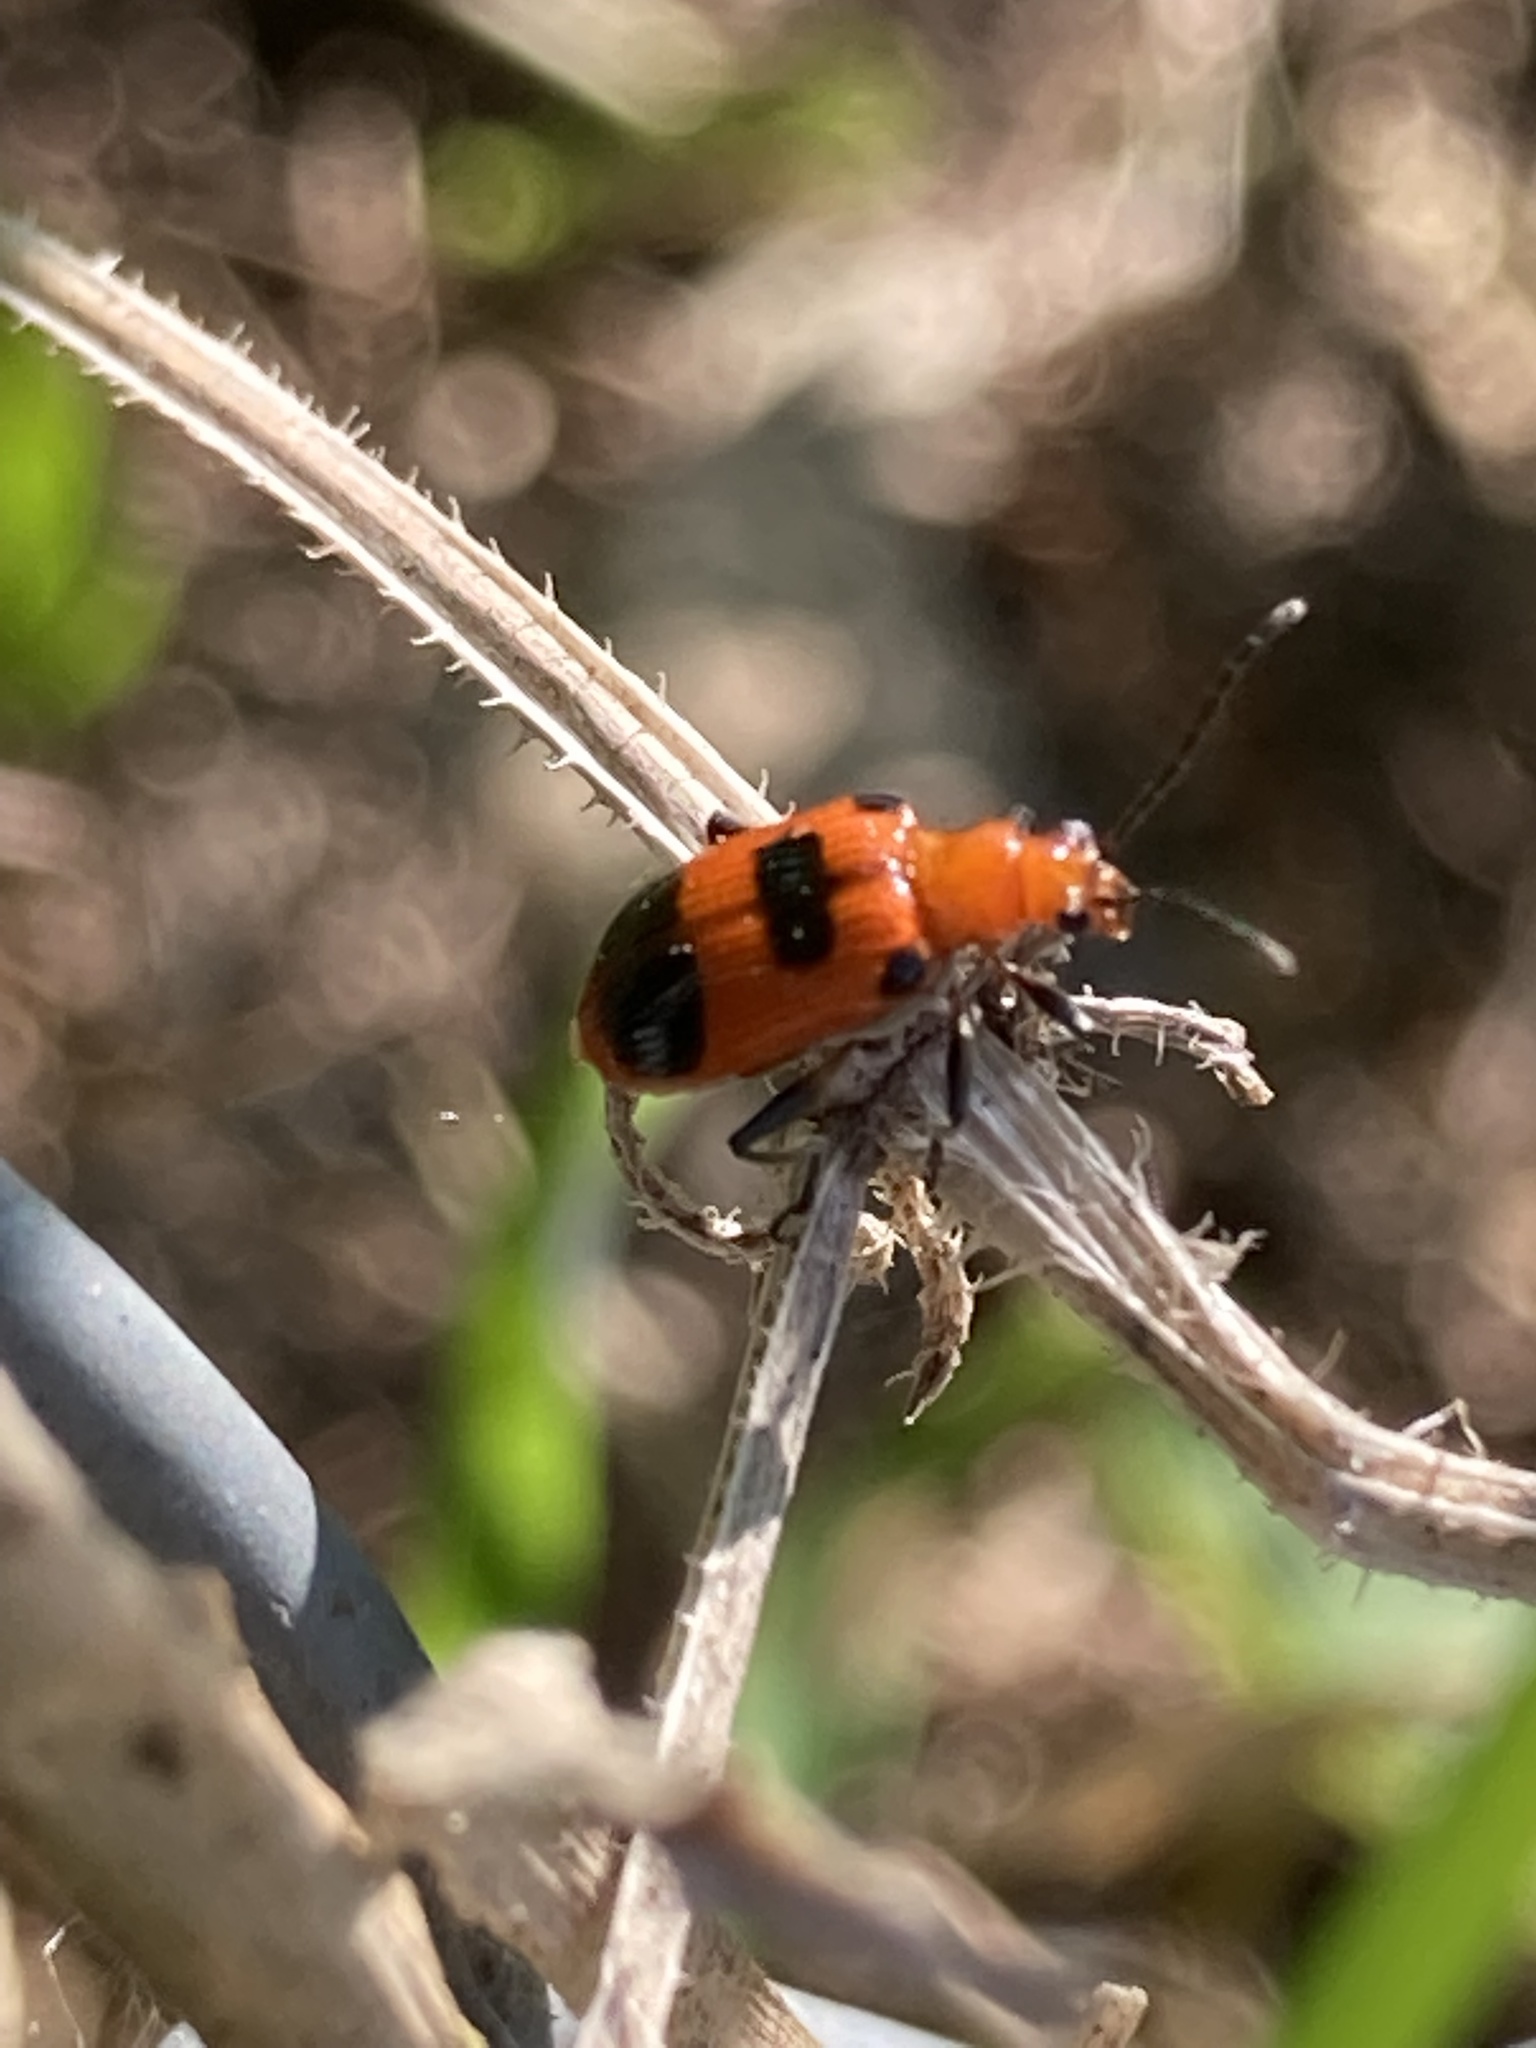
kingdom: Animalia
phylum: Arthropoda
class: Insecta
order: Coleoptera
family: Chrysomelidae
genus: Neolema
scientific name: Neolema sexpunctata
